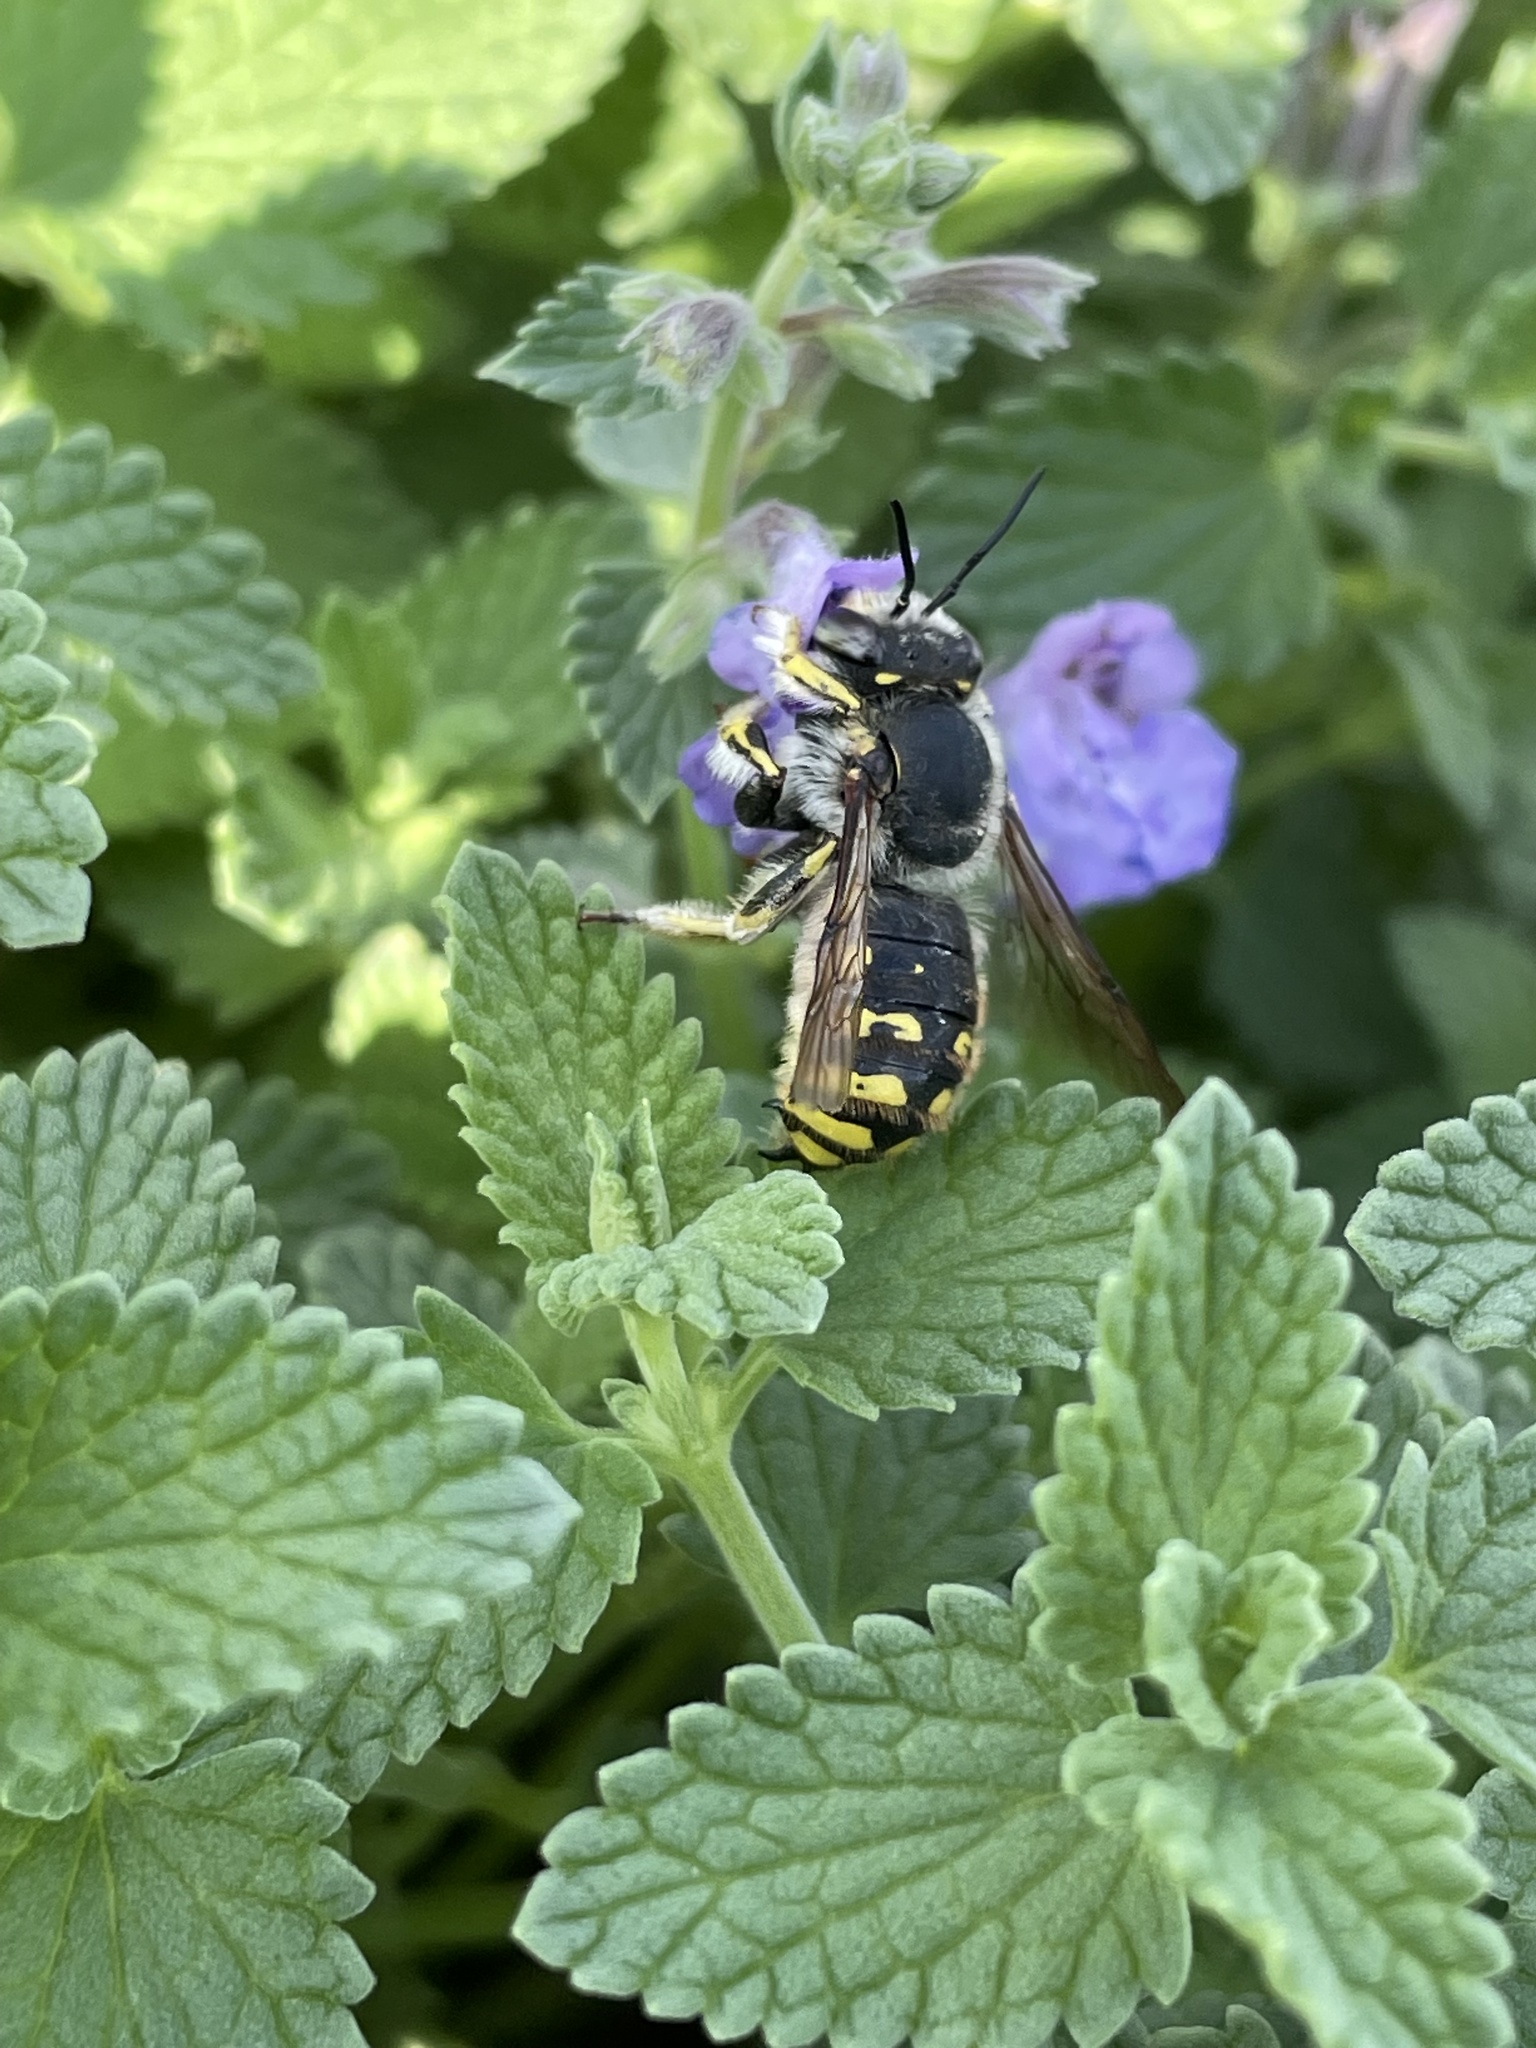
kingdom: Animalia
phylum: Arthropoda
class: Insecta
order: Hymenoptera
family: Megachilidae
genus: Anthidium
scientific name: Anthidium manicatum
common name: Wool carder bee
